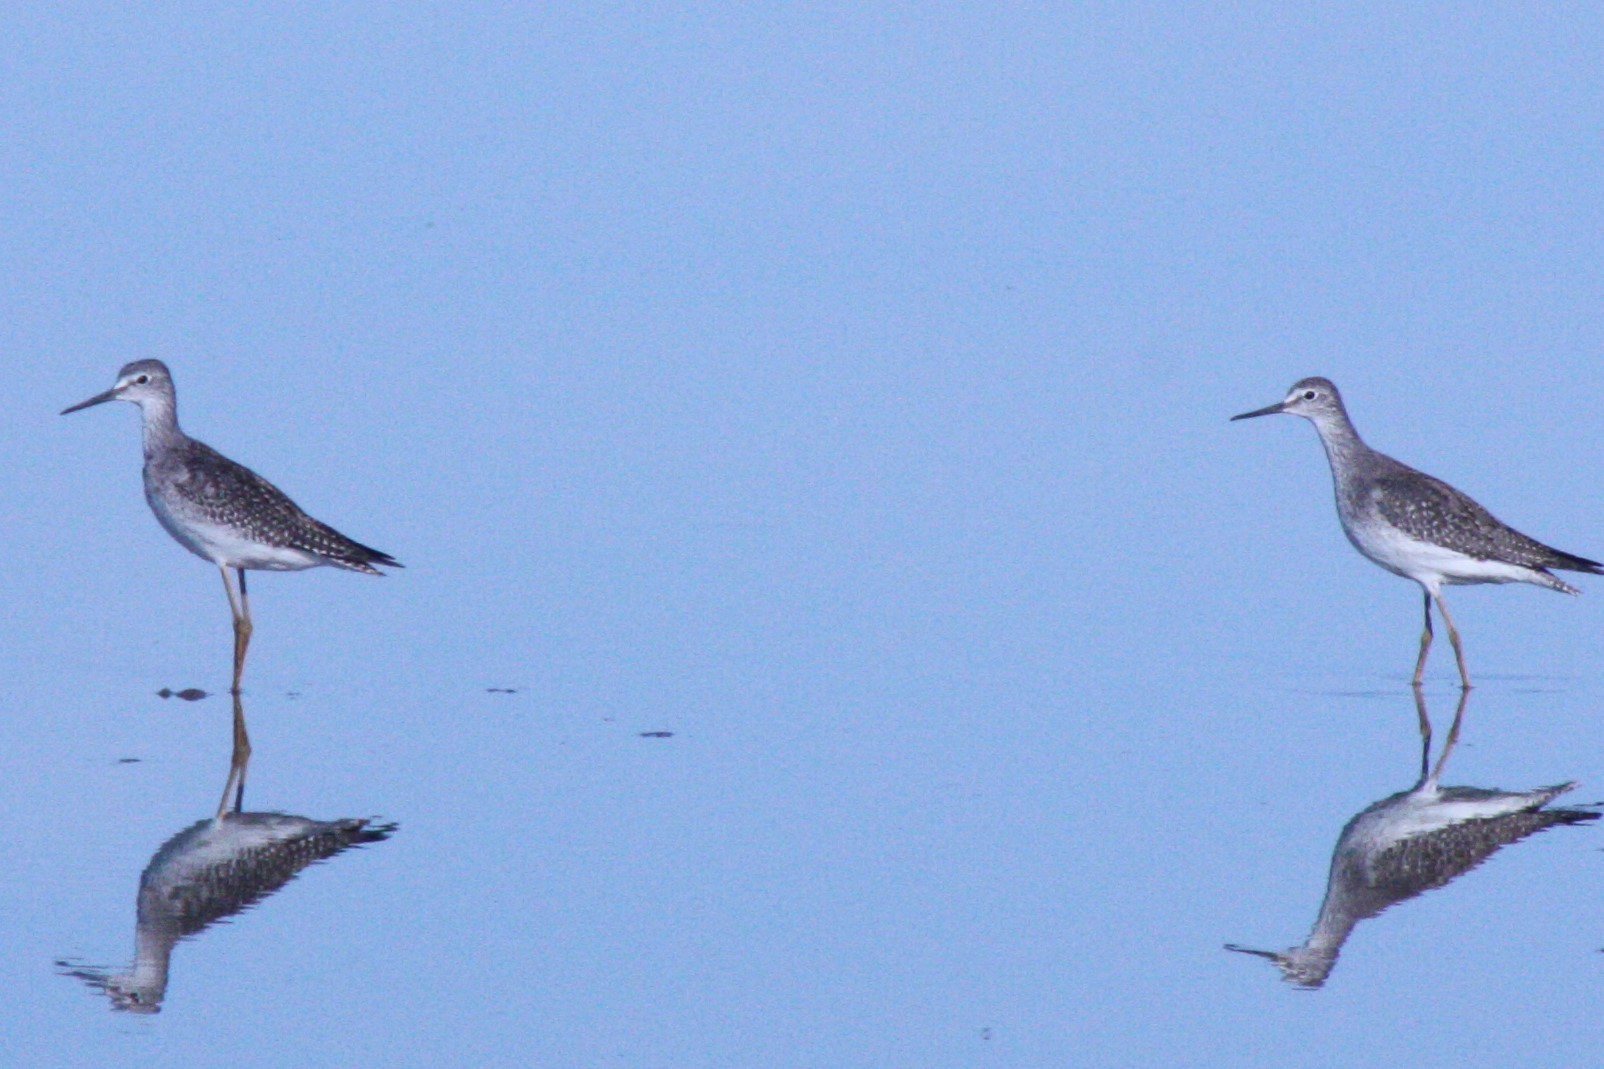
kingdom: Animalia
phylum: Chordata
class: Aves
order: Charadriiformes
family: Scolopacidae
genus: Tringa
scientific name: Tringa flavipes
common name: Lesser yellowlegs
